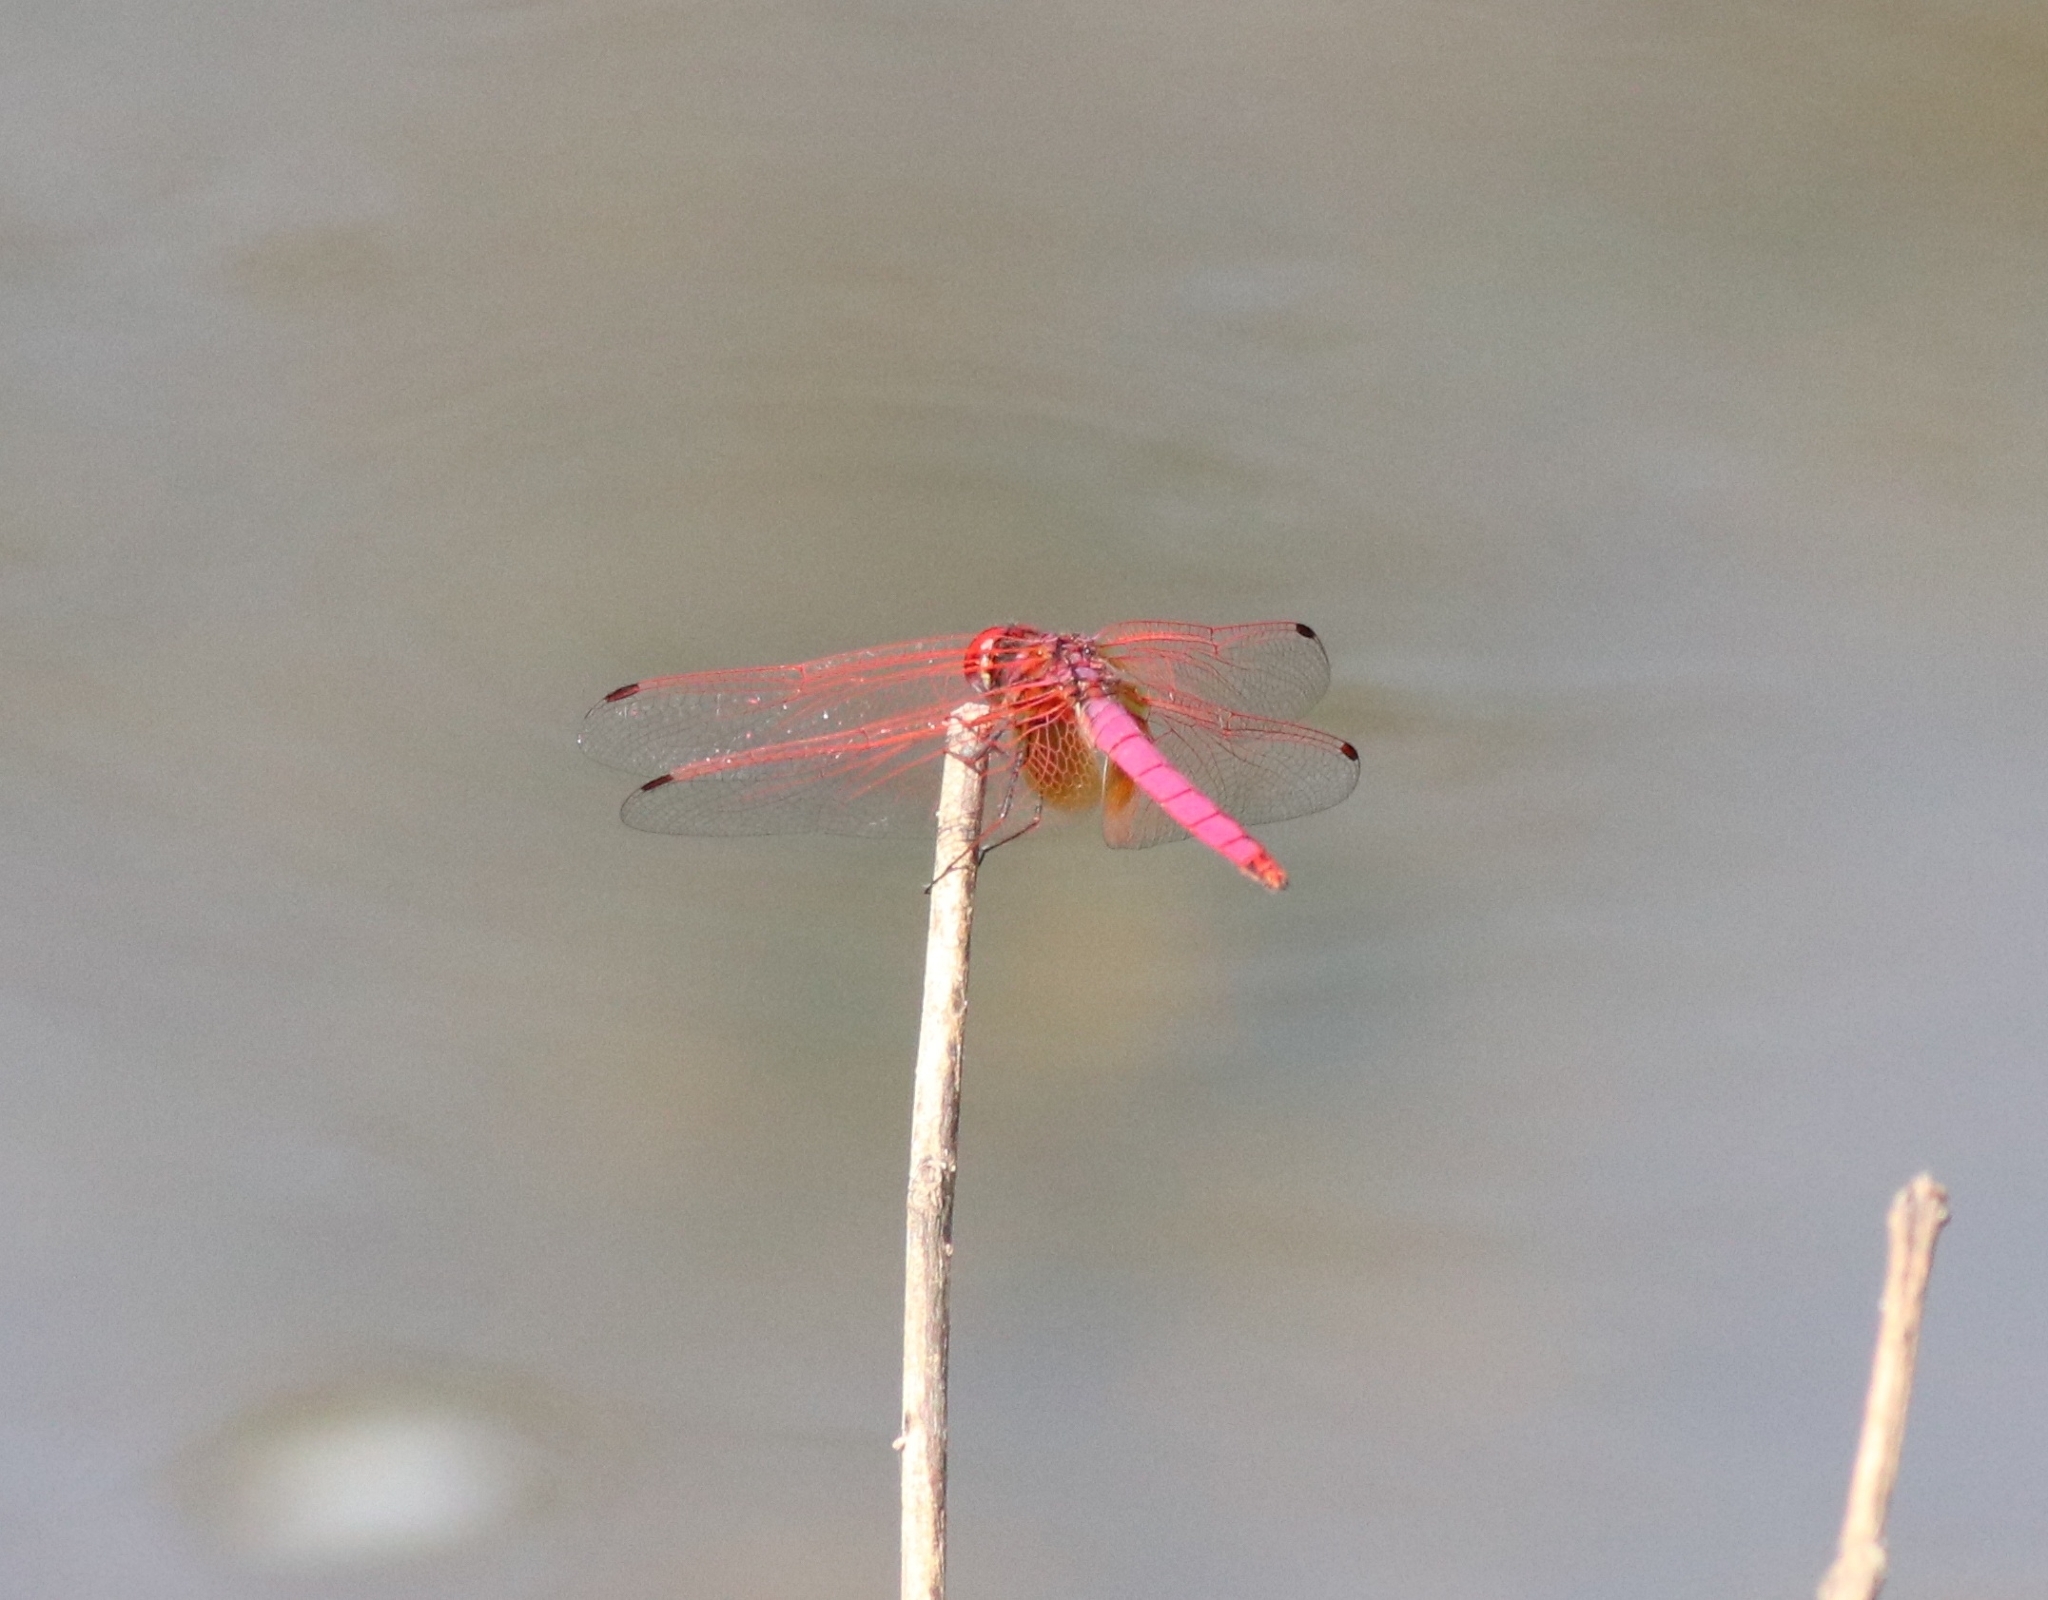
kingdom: Animalia
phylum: Arthropoda
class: Insecta
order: Odonata
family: Libellulidae
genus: Trithemis
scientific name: Trithemis aurora
